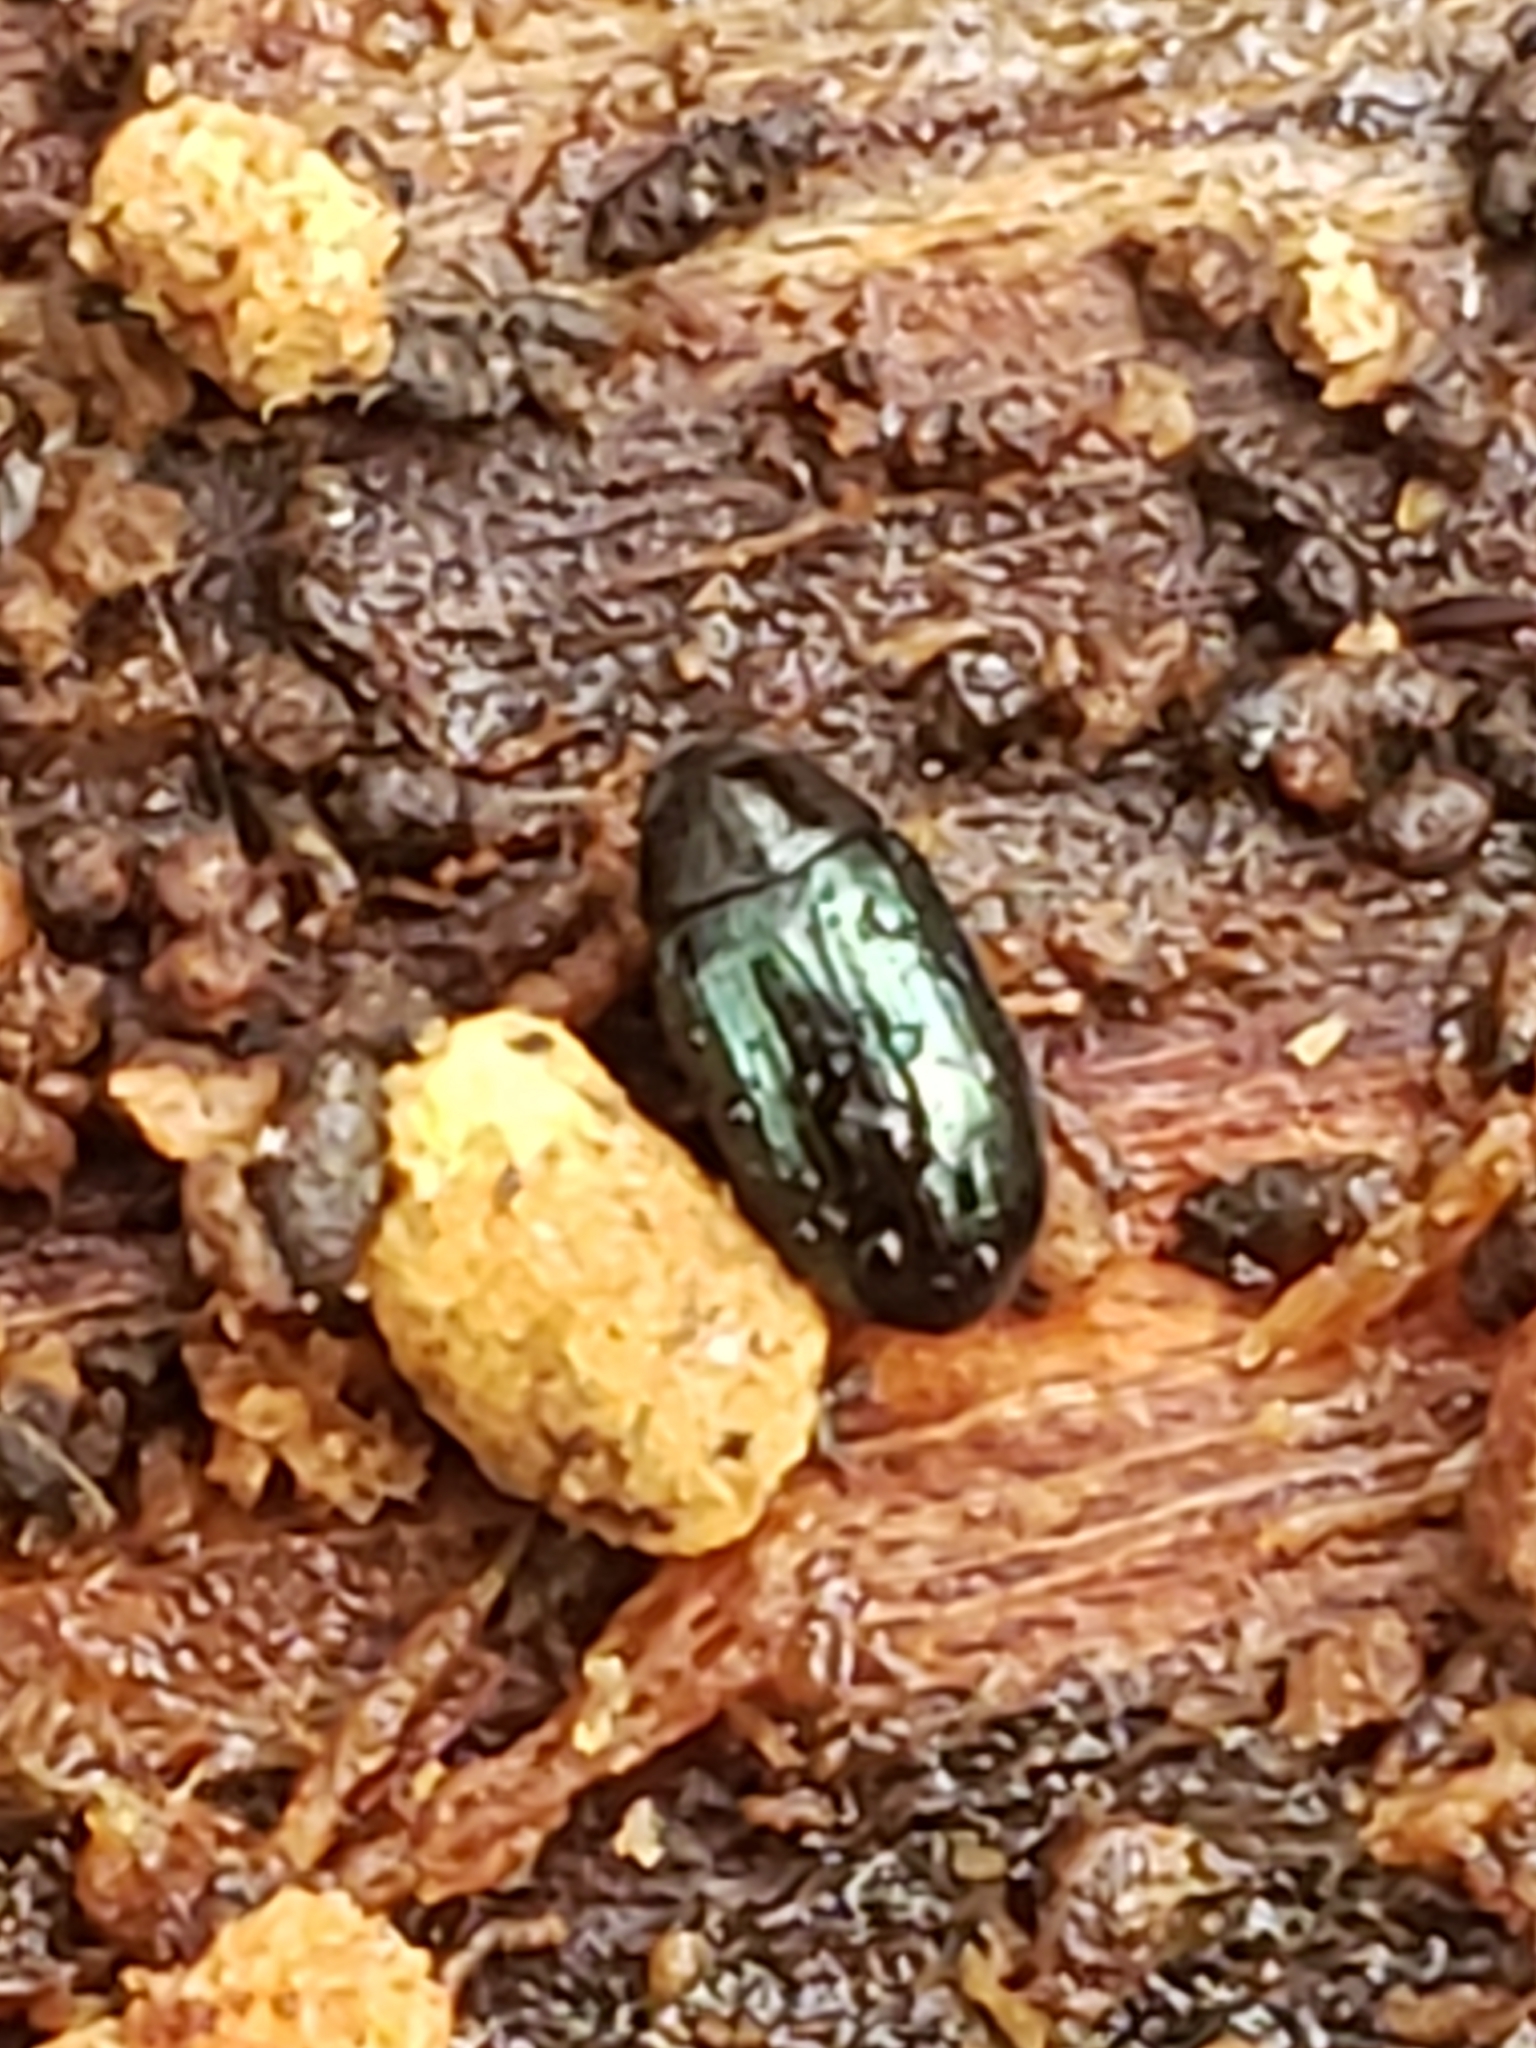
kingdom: Animalia
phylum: Arthropoda
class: Insecta
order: Coleoptera
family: Tenebrionidae
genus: Neomida
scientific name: Neomida bicornis
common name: Two-horned darkling beetle
